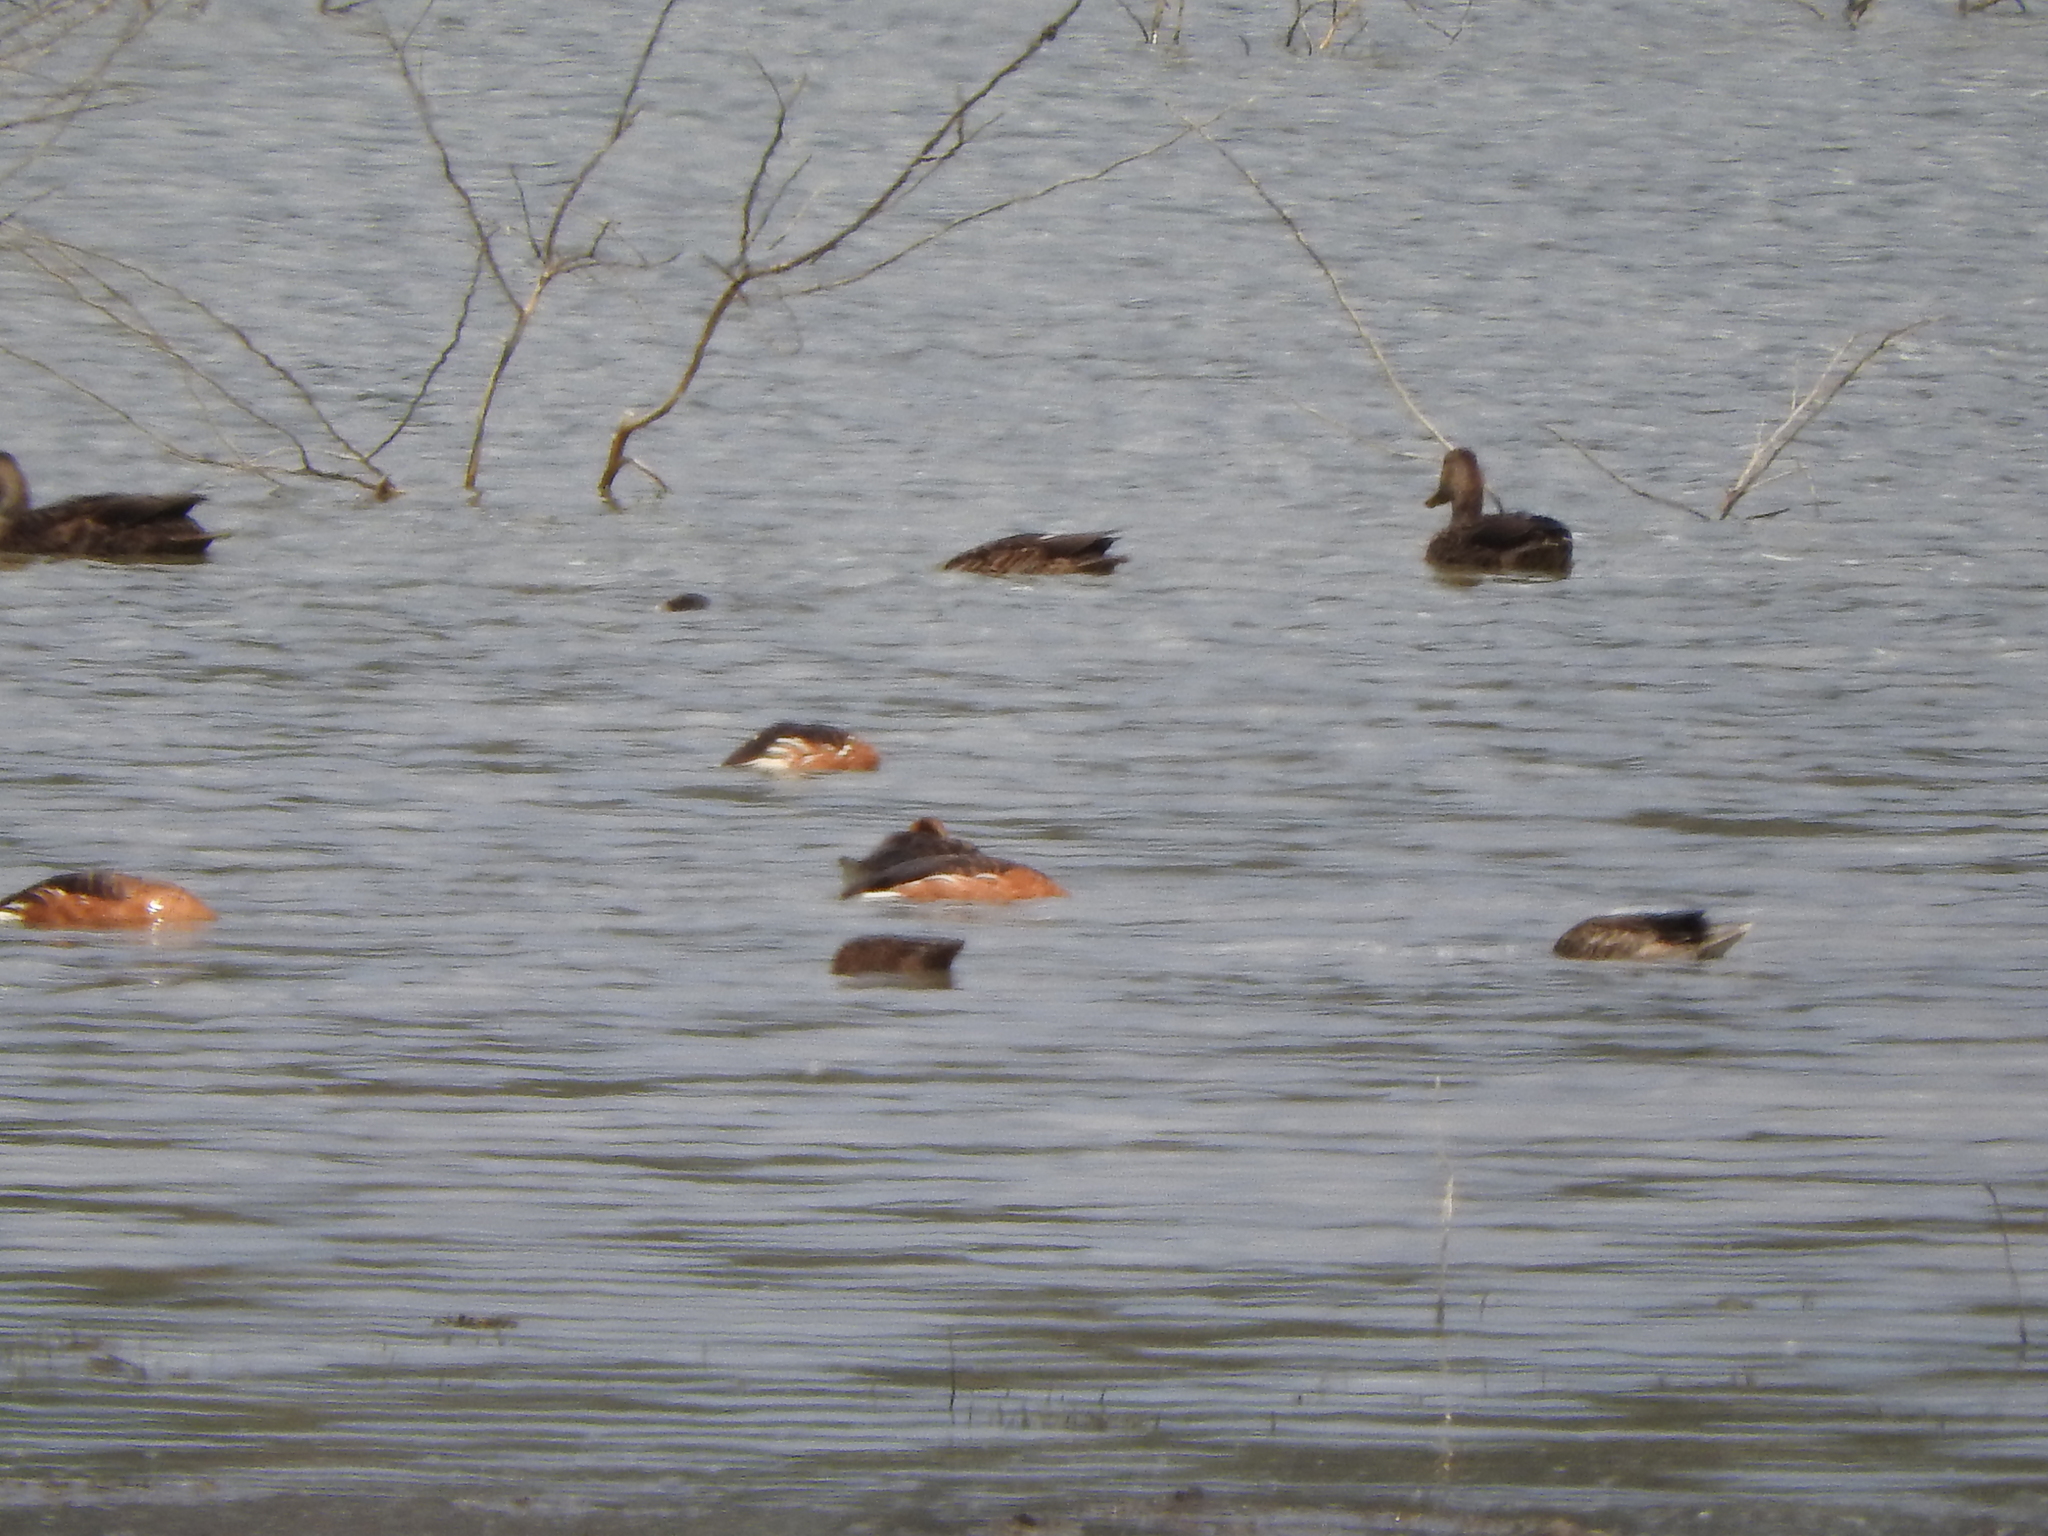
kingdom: Animalia
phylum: Chordata
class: Aves
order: Anseriformes
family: Anatidae
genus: Dendrocygna
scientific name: Dendrocygna bicolor
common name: Fulvous whistling duck
